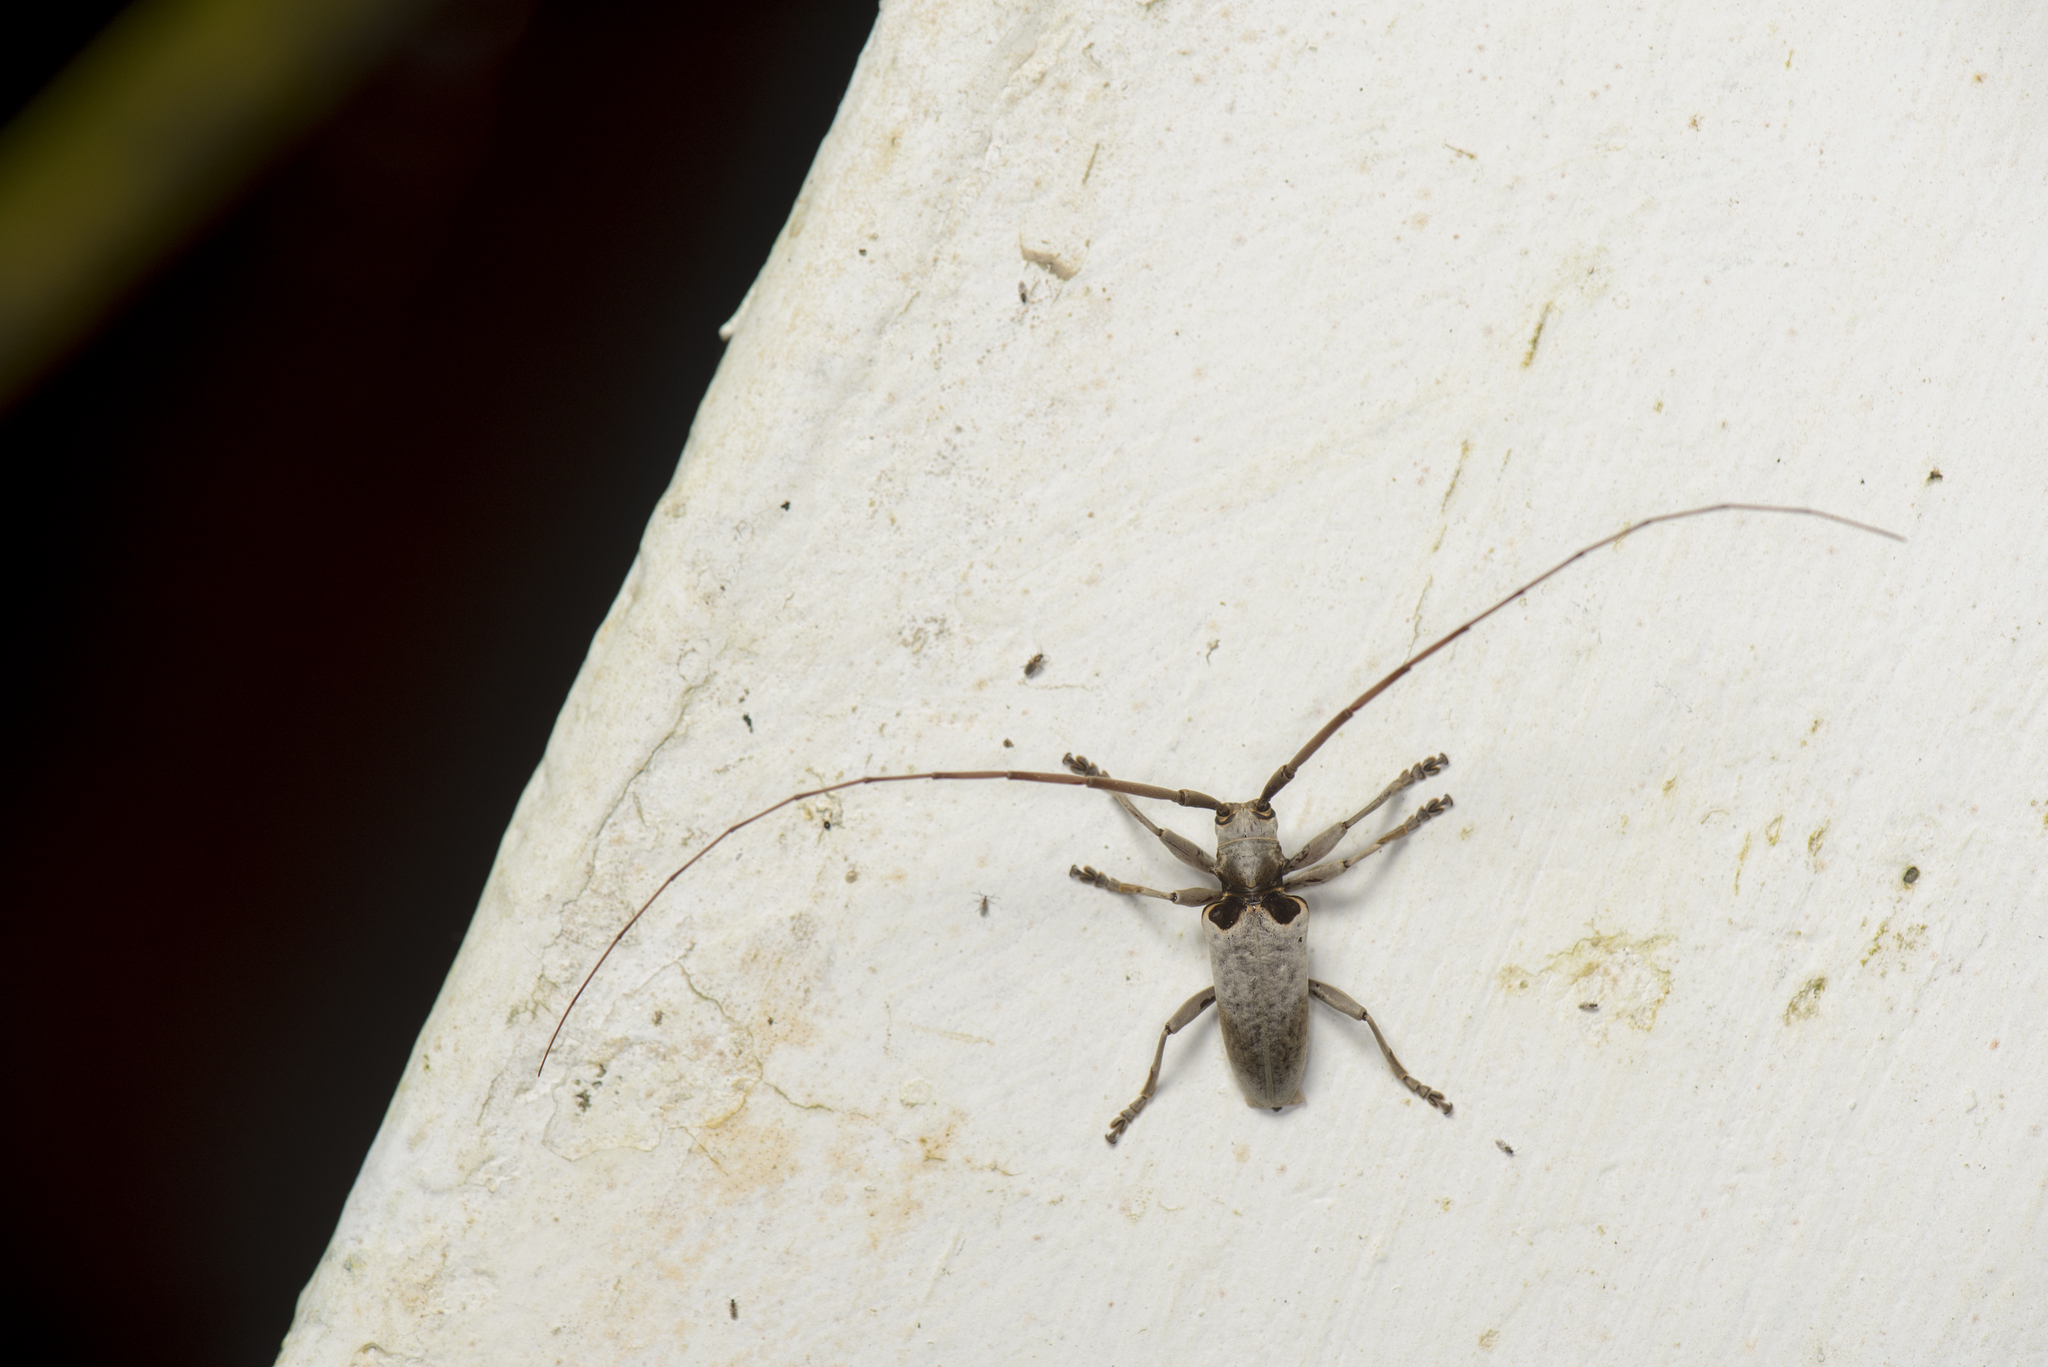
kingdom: Animalia
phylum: Arthropoda
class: Insecta
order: Coleoptera
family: Cerambycidae
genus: Acalolepta
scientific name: Acalolepta sublusca
